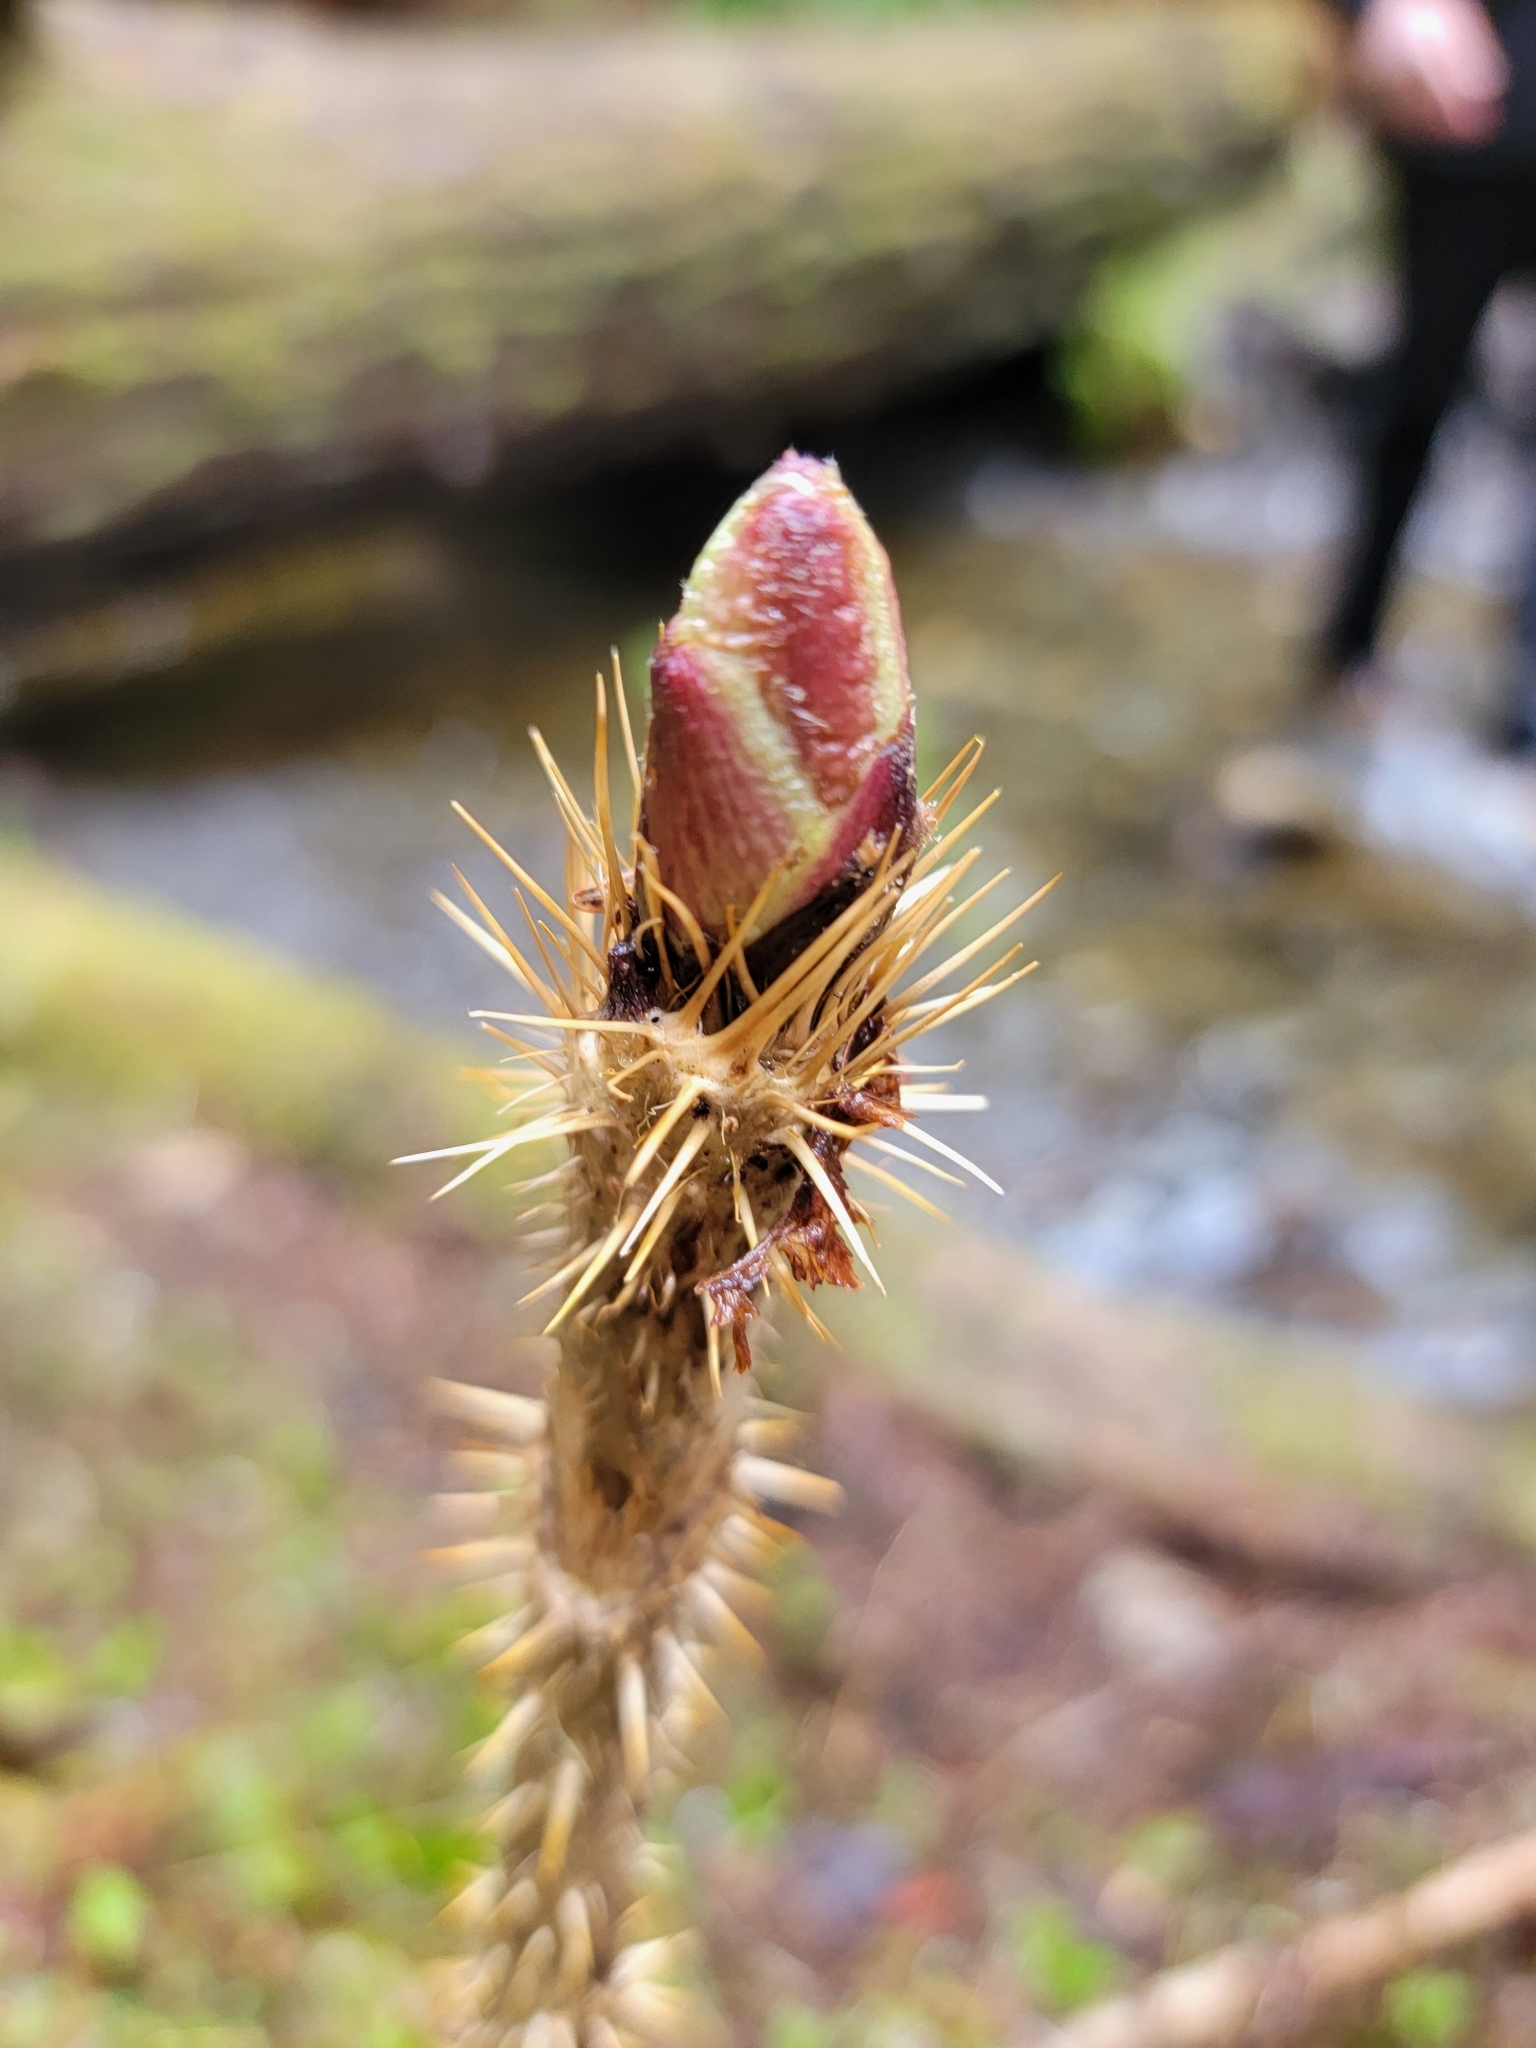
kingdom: Plantae
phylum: Tracheophyta
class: Magnoliopsida
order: Apiales
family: Araliaceae
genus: Oplopanax
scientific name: Oplopanax horridus
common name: Devil's walking-stick
